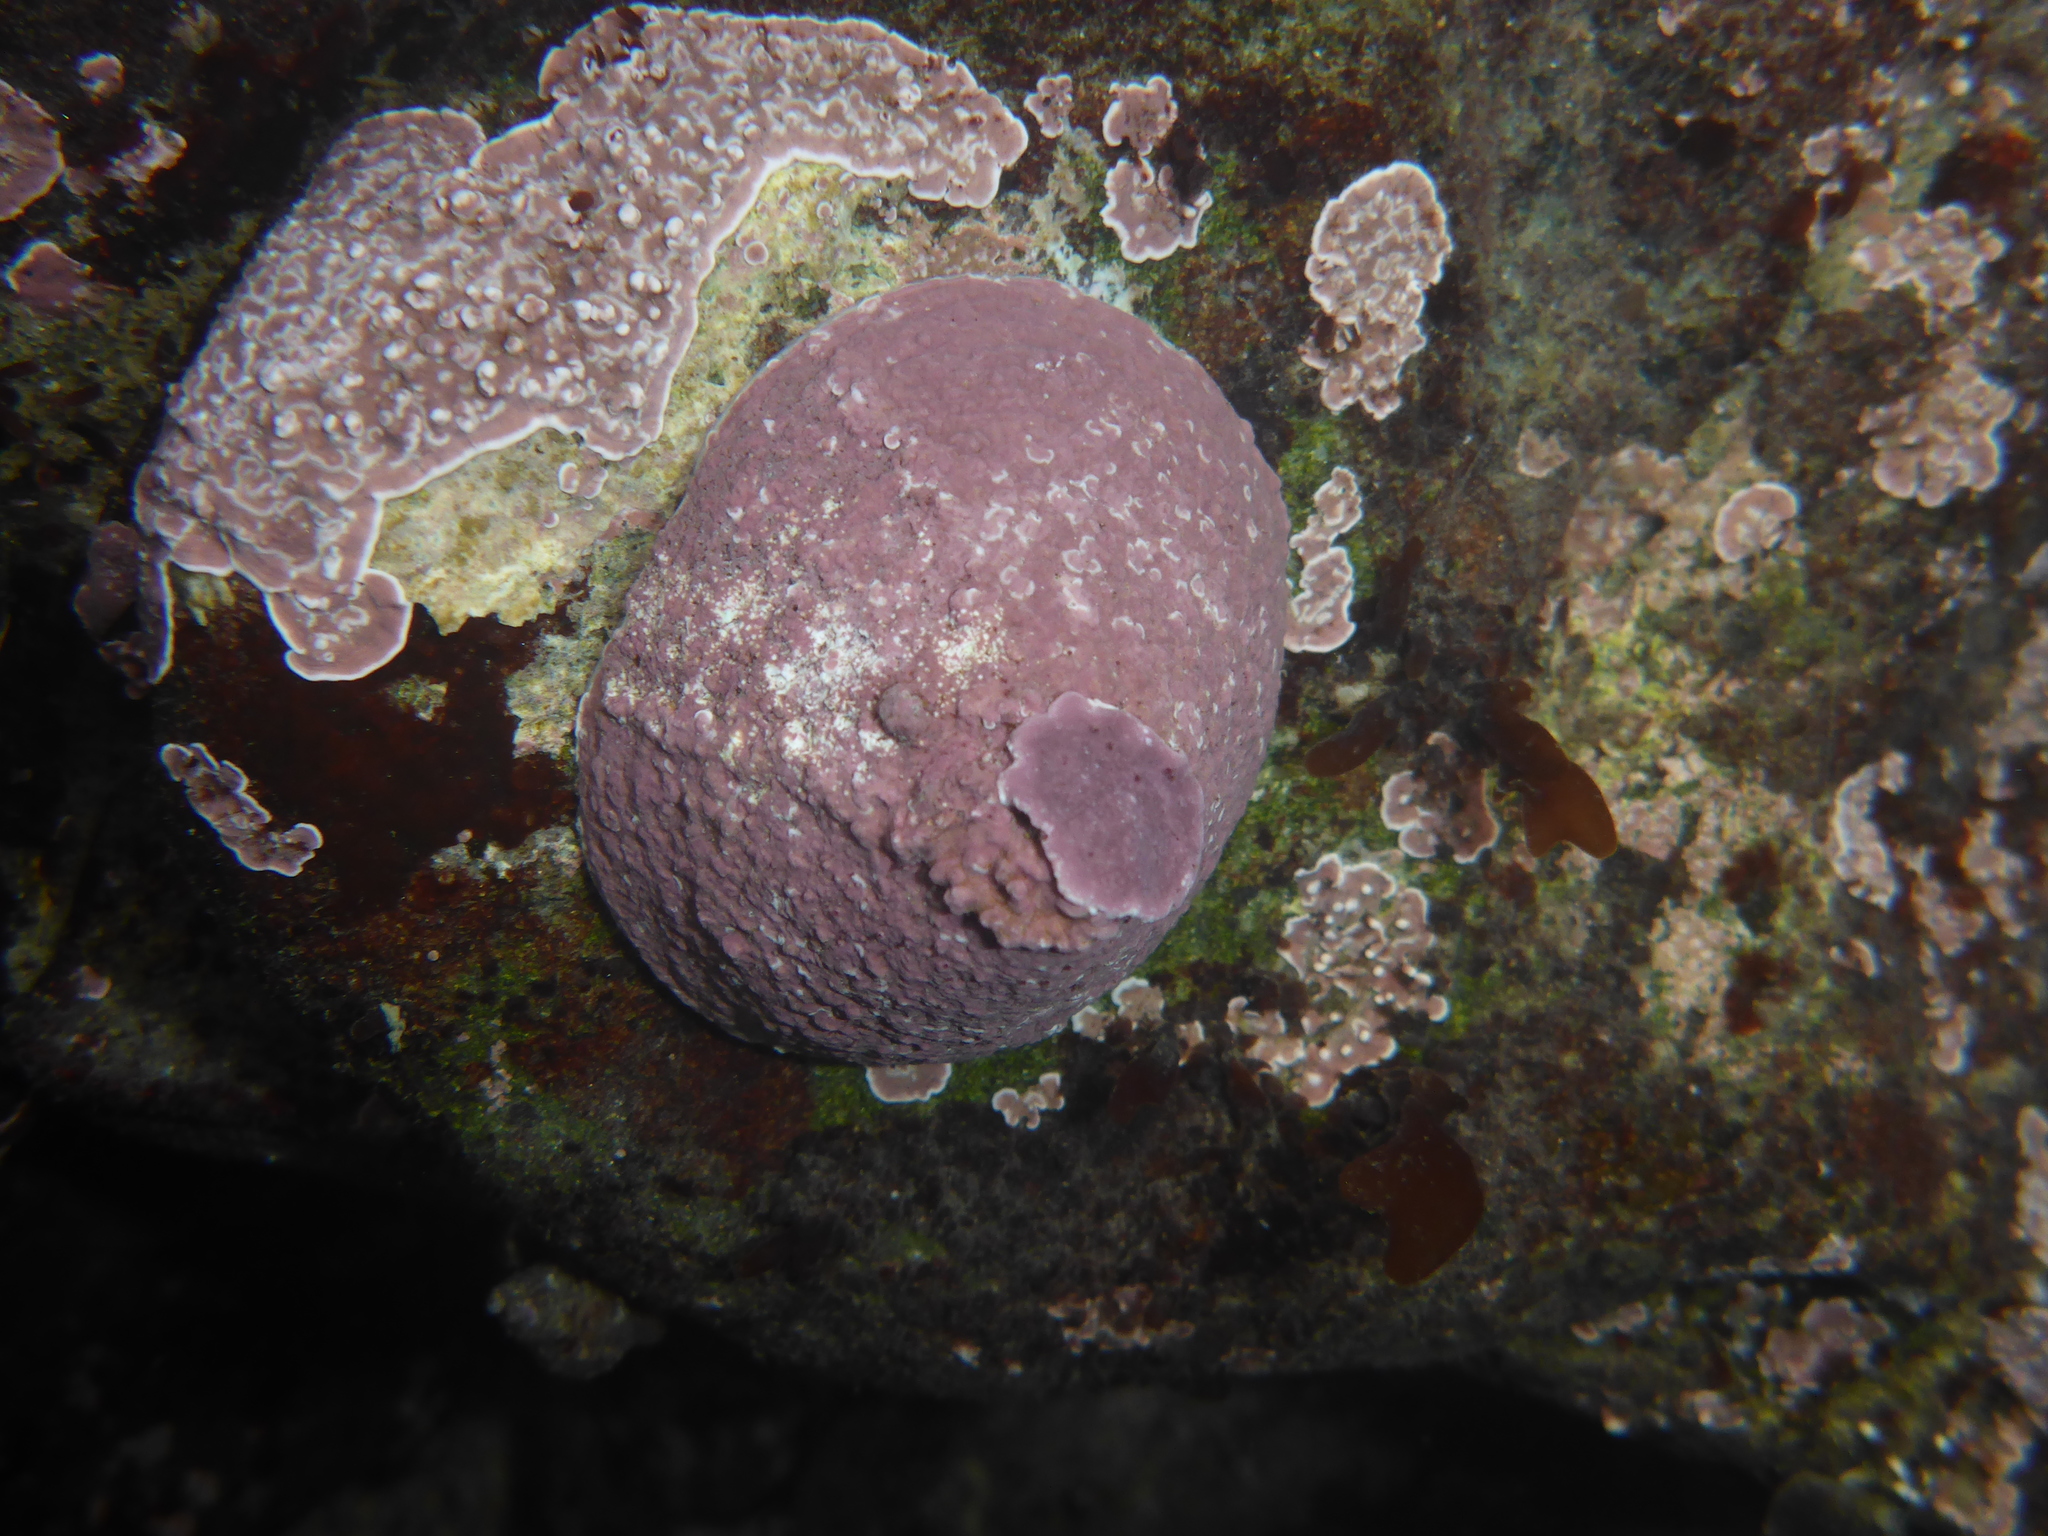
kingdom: Animalia
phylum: Mollusca
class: Gastropoda
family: Acmaeidae
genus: Acmaea
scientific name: Acmaea mitra
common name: Pacific white cap limpet
